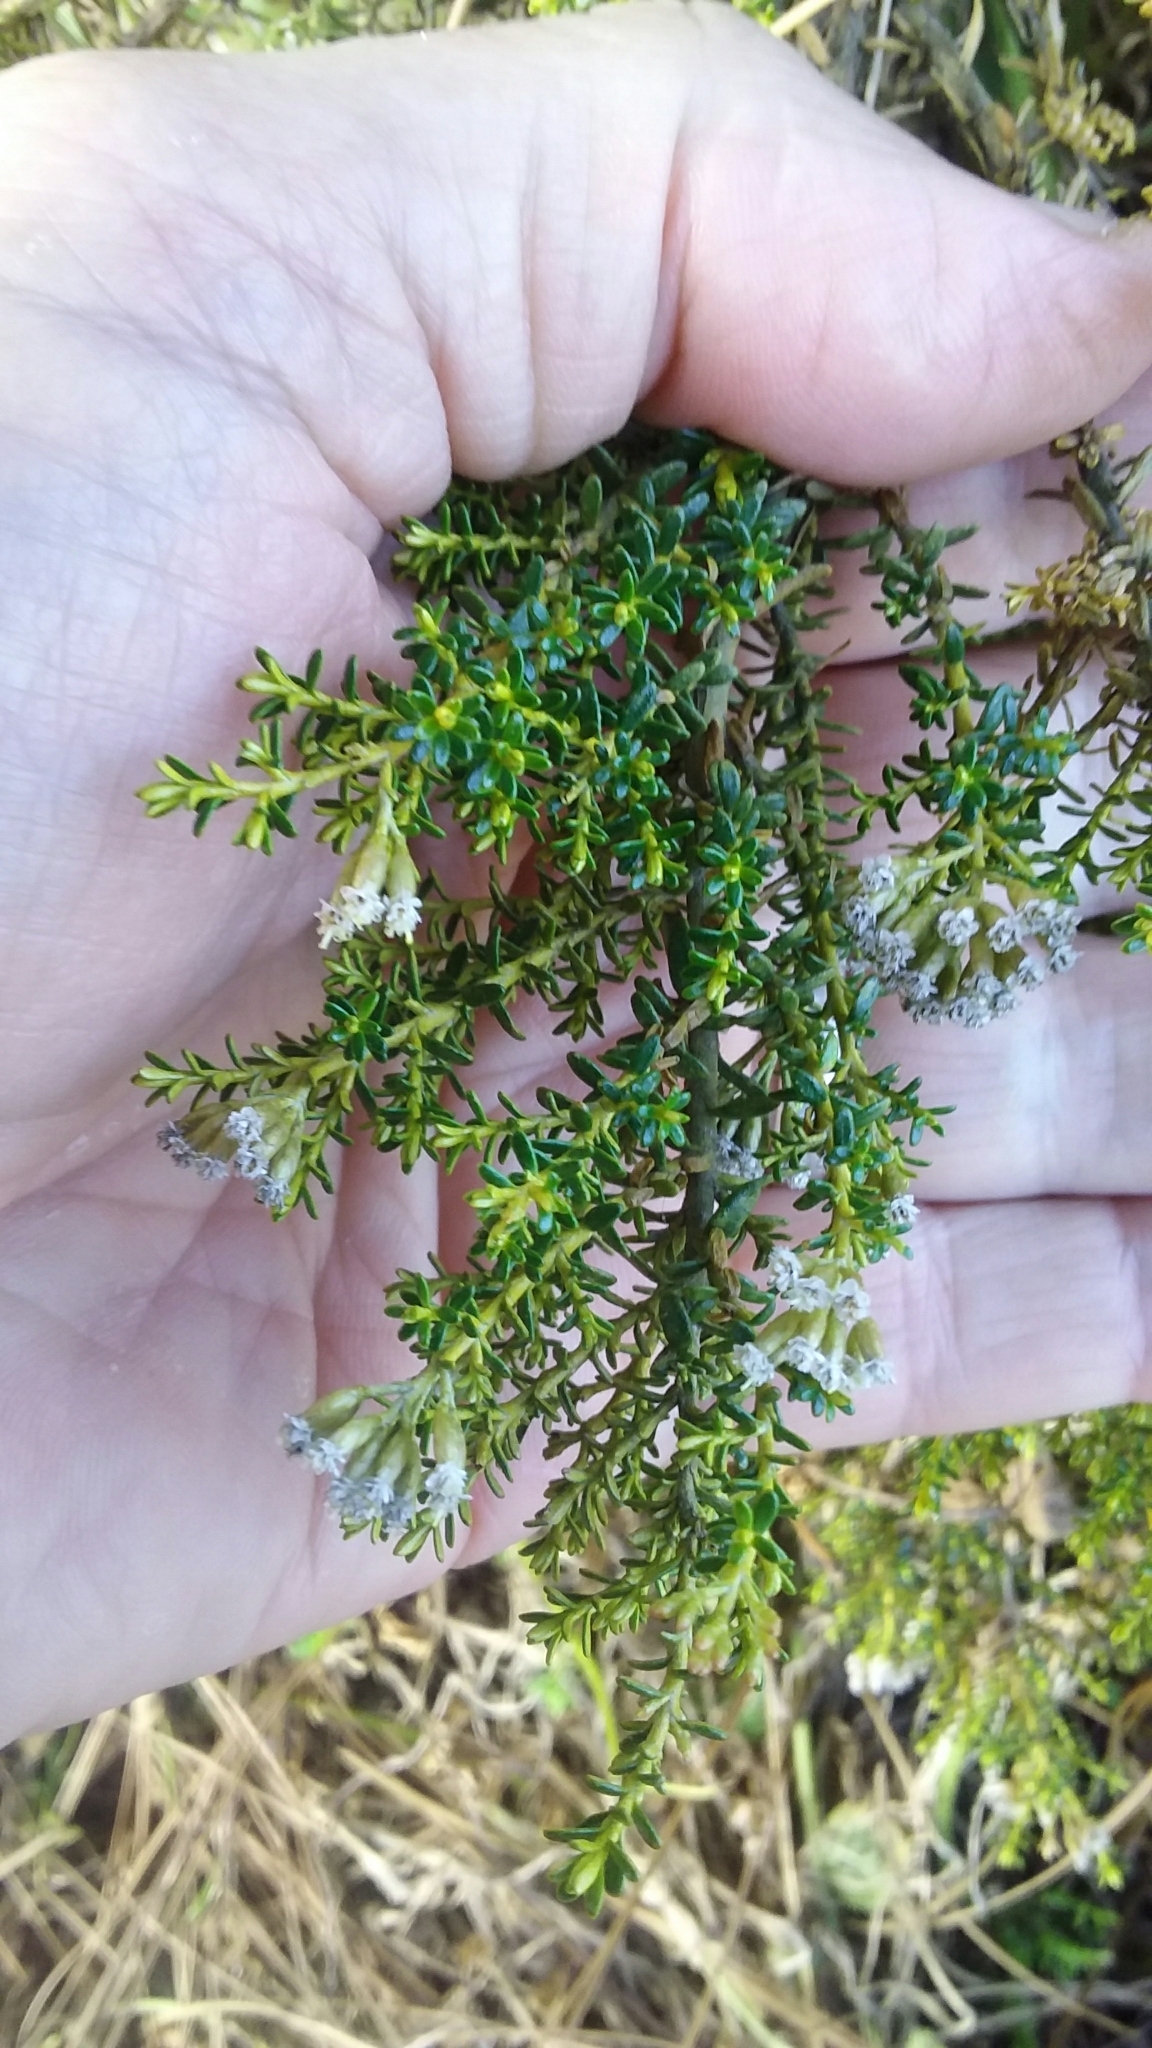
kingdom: Plantae
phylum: Tracheophyta
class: Magnoliopsida
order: Asterales
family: Asteraceae
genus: Ozothamnus
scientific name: Ozothamnus leptophyllus
